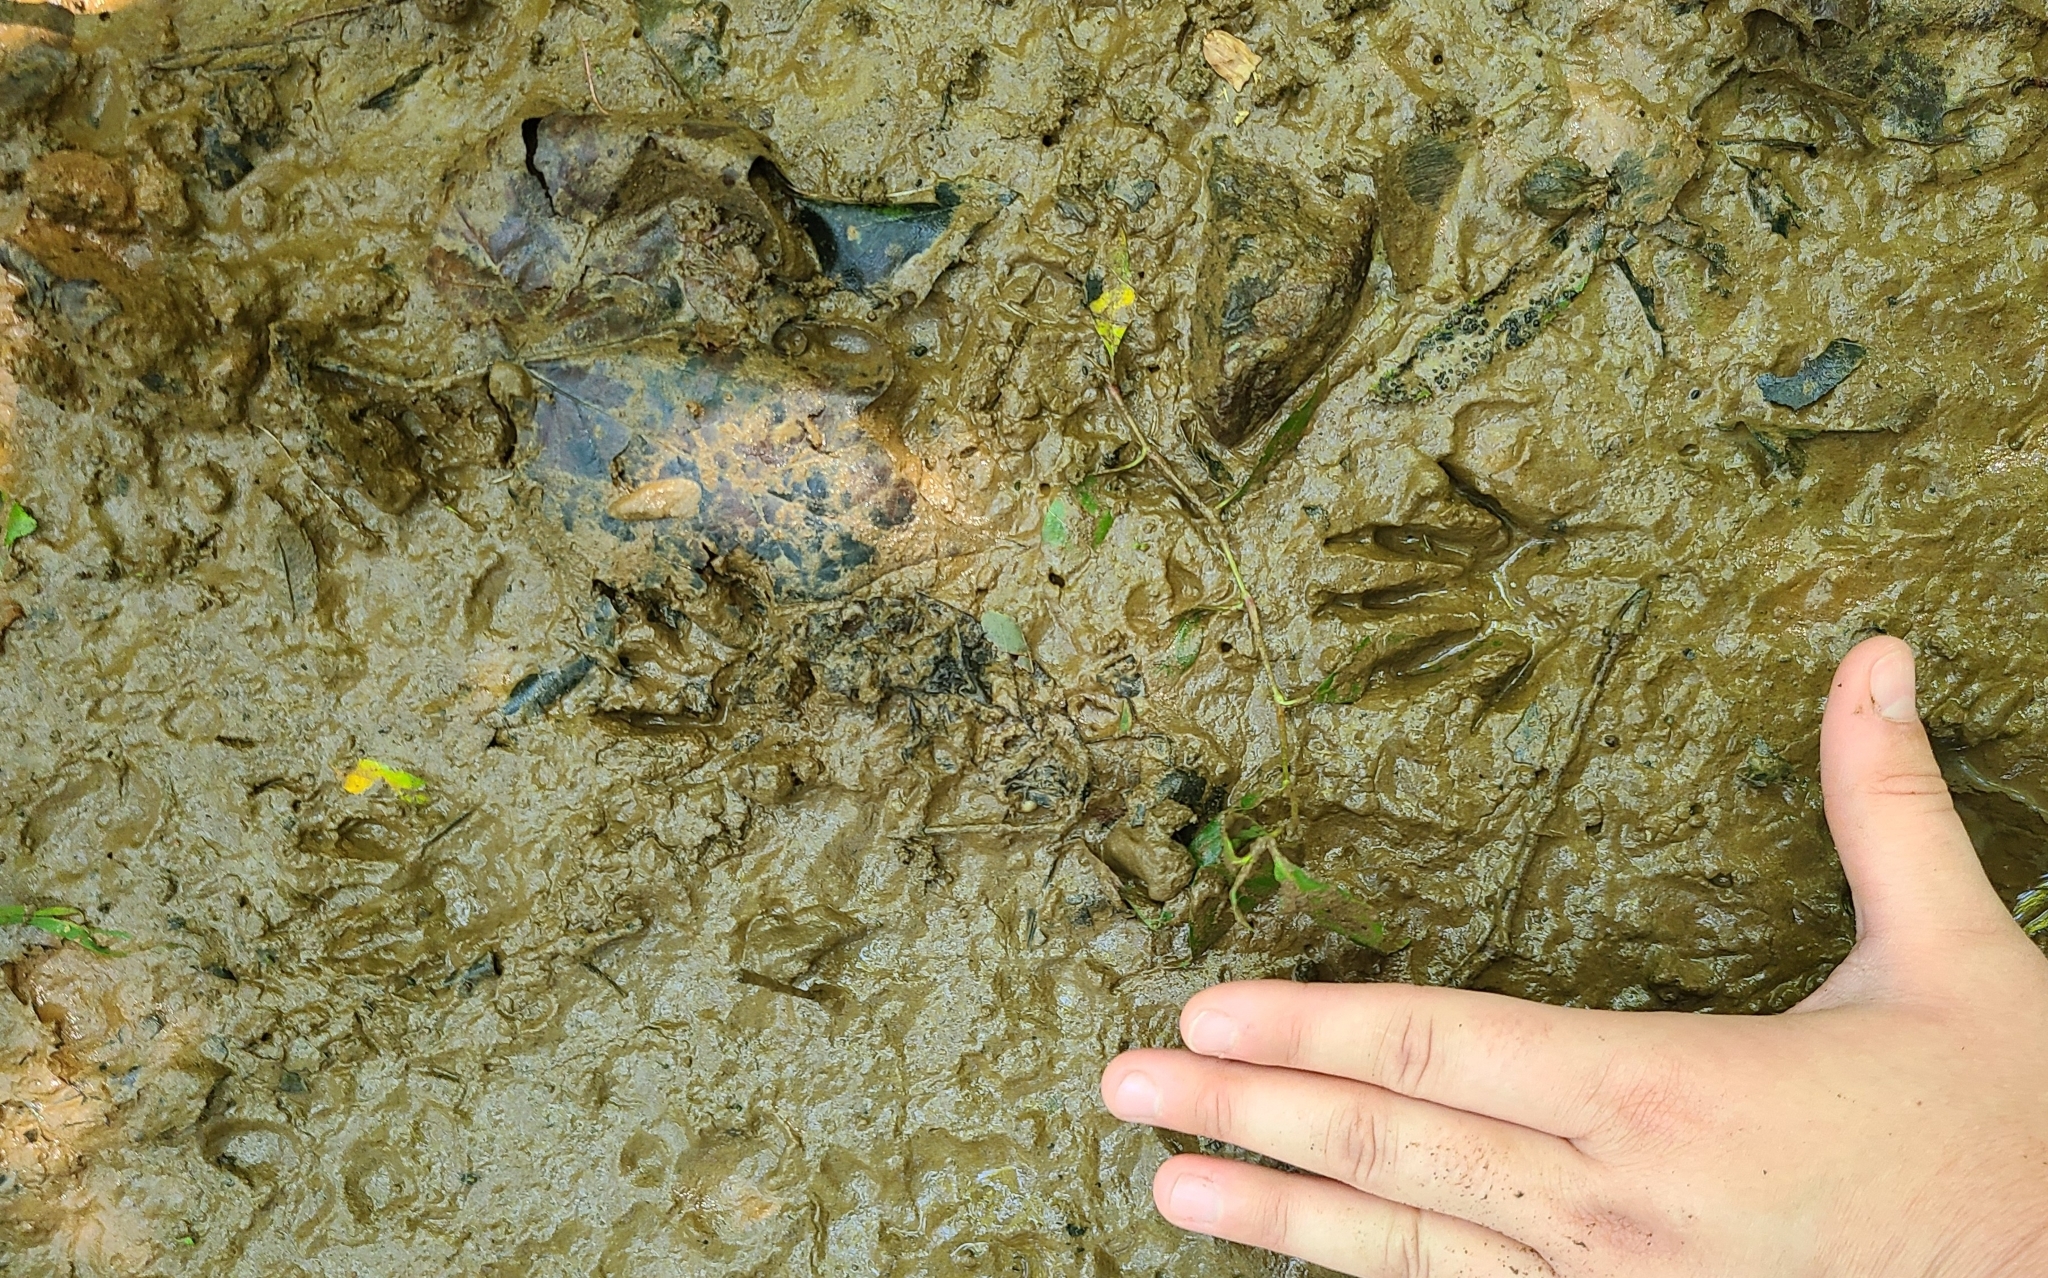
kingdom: Animalia
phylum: Chordata
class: Mammalia
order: Carnivora
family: Procyonidae
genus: Procyon
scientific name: Procyon lotor
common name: Raccoon
